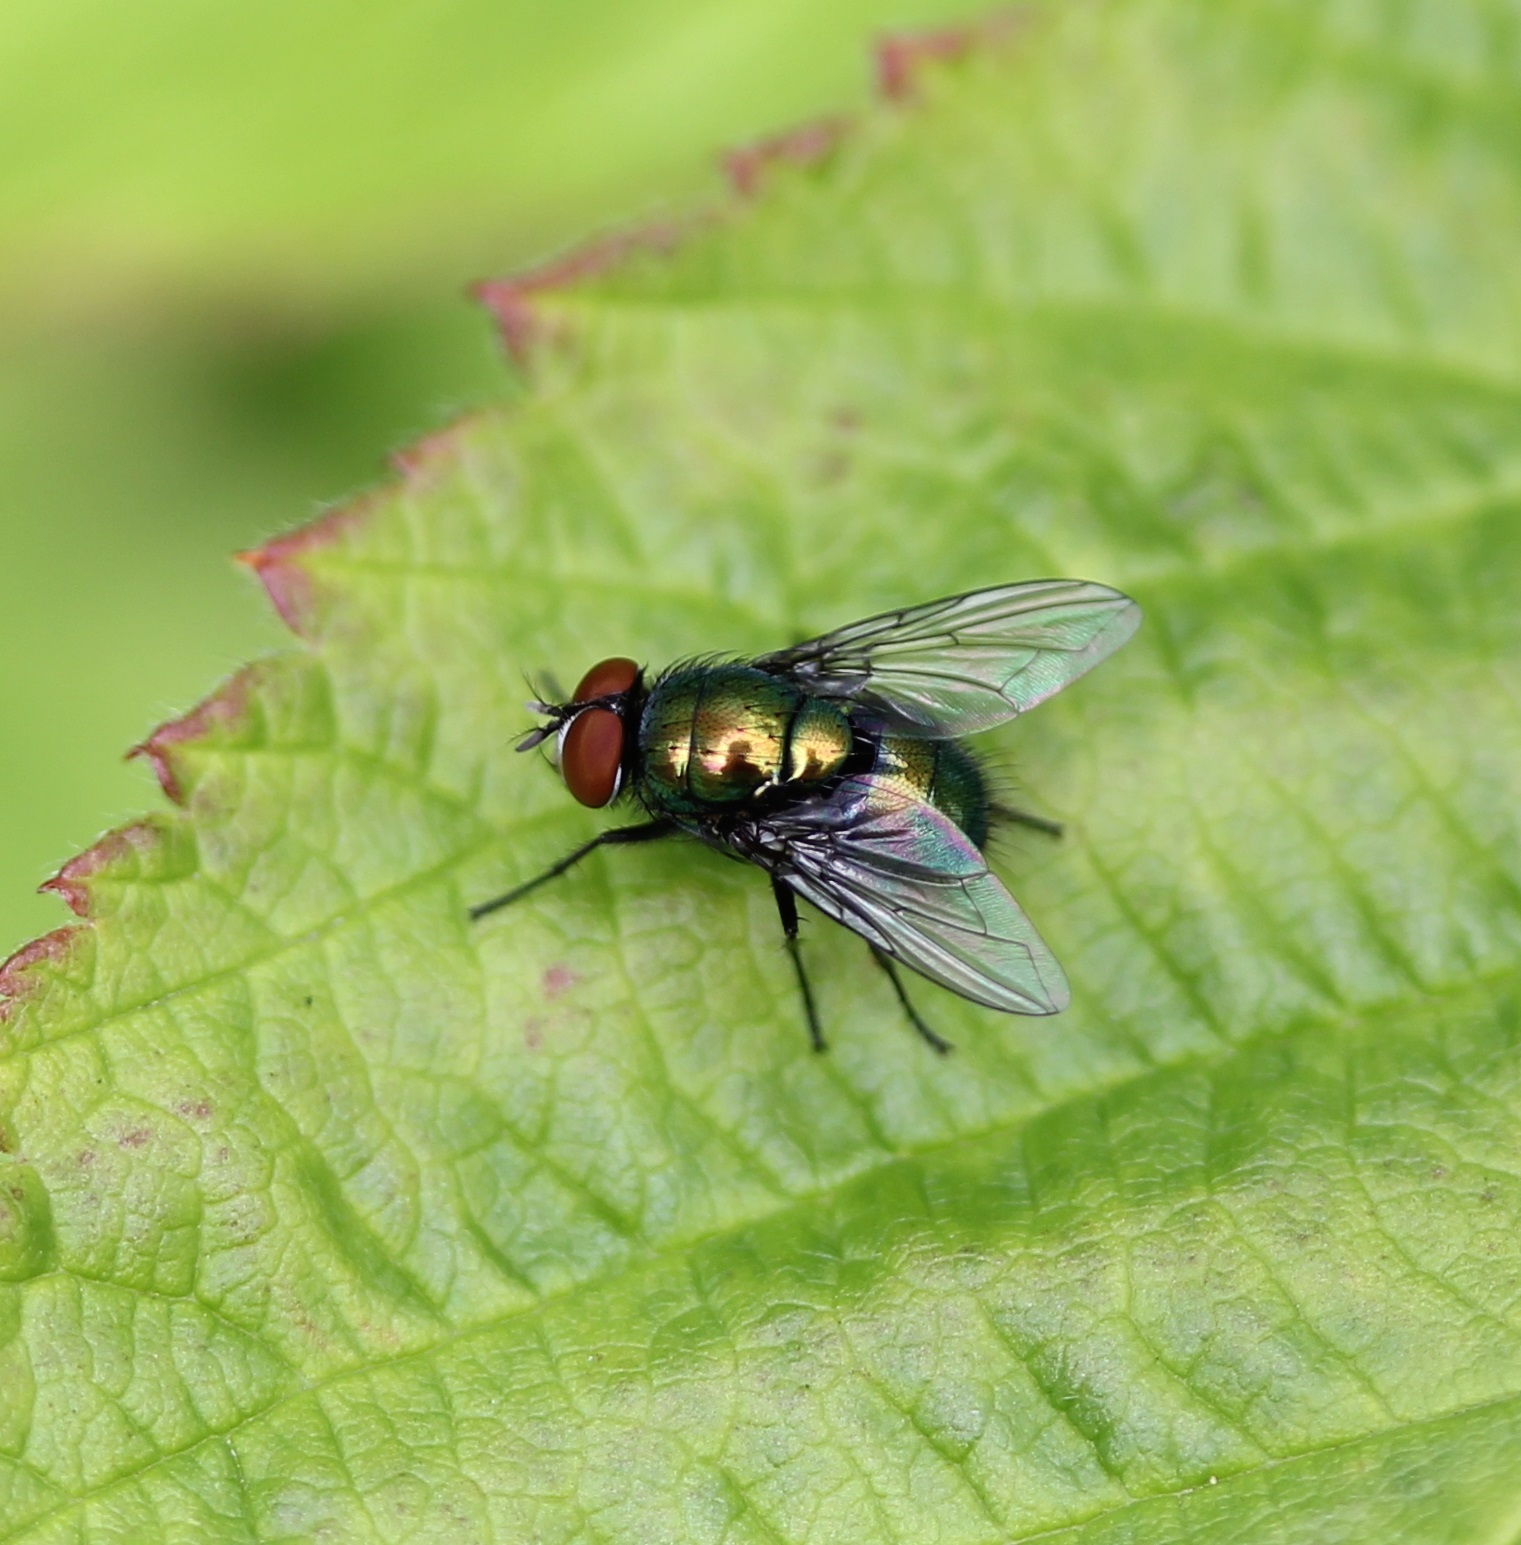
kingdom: Animalia
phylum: Arthropoda
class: Insecta
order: Diptera
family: Calliphoridae
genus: Lucilia
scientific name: Lucilia illustris
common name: Illustrious greenbottle
